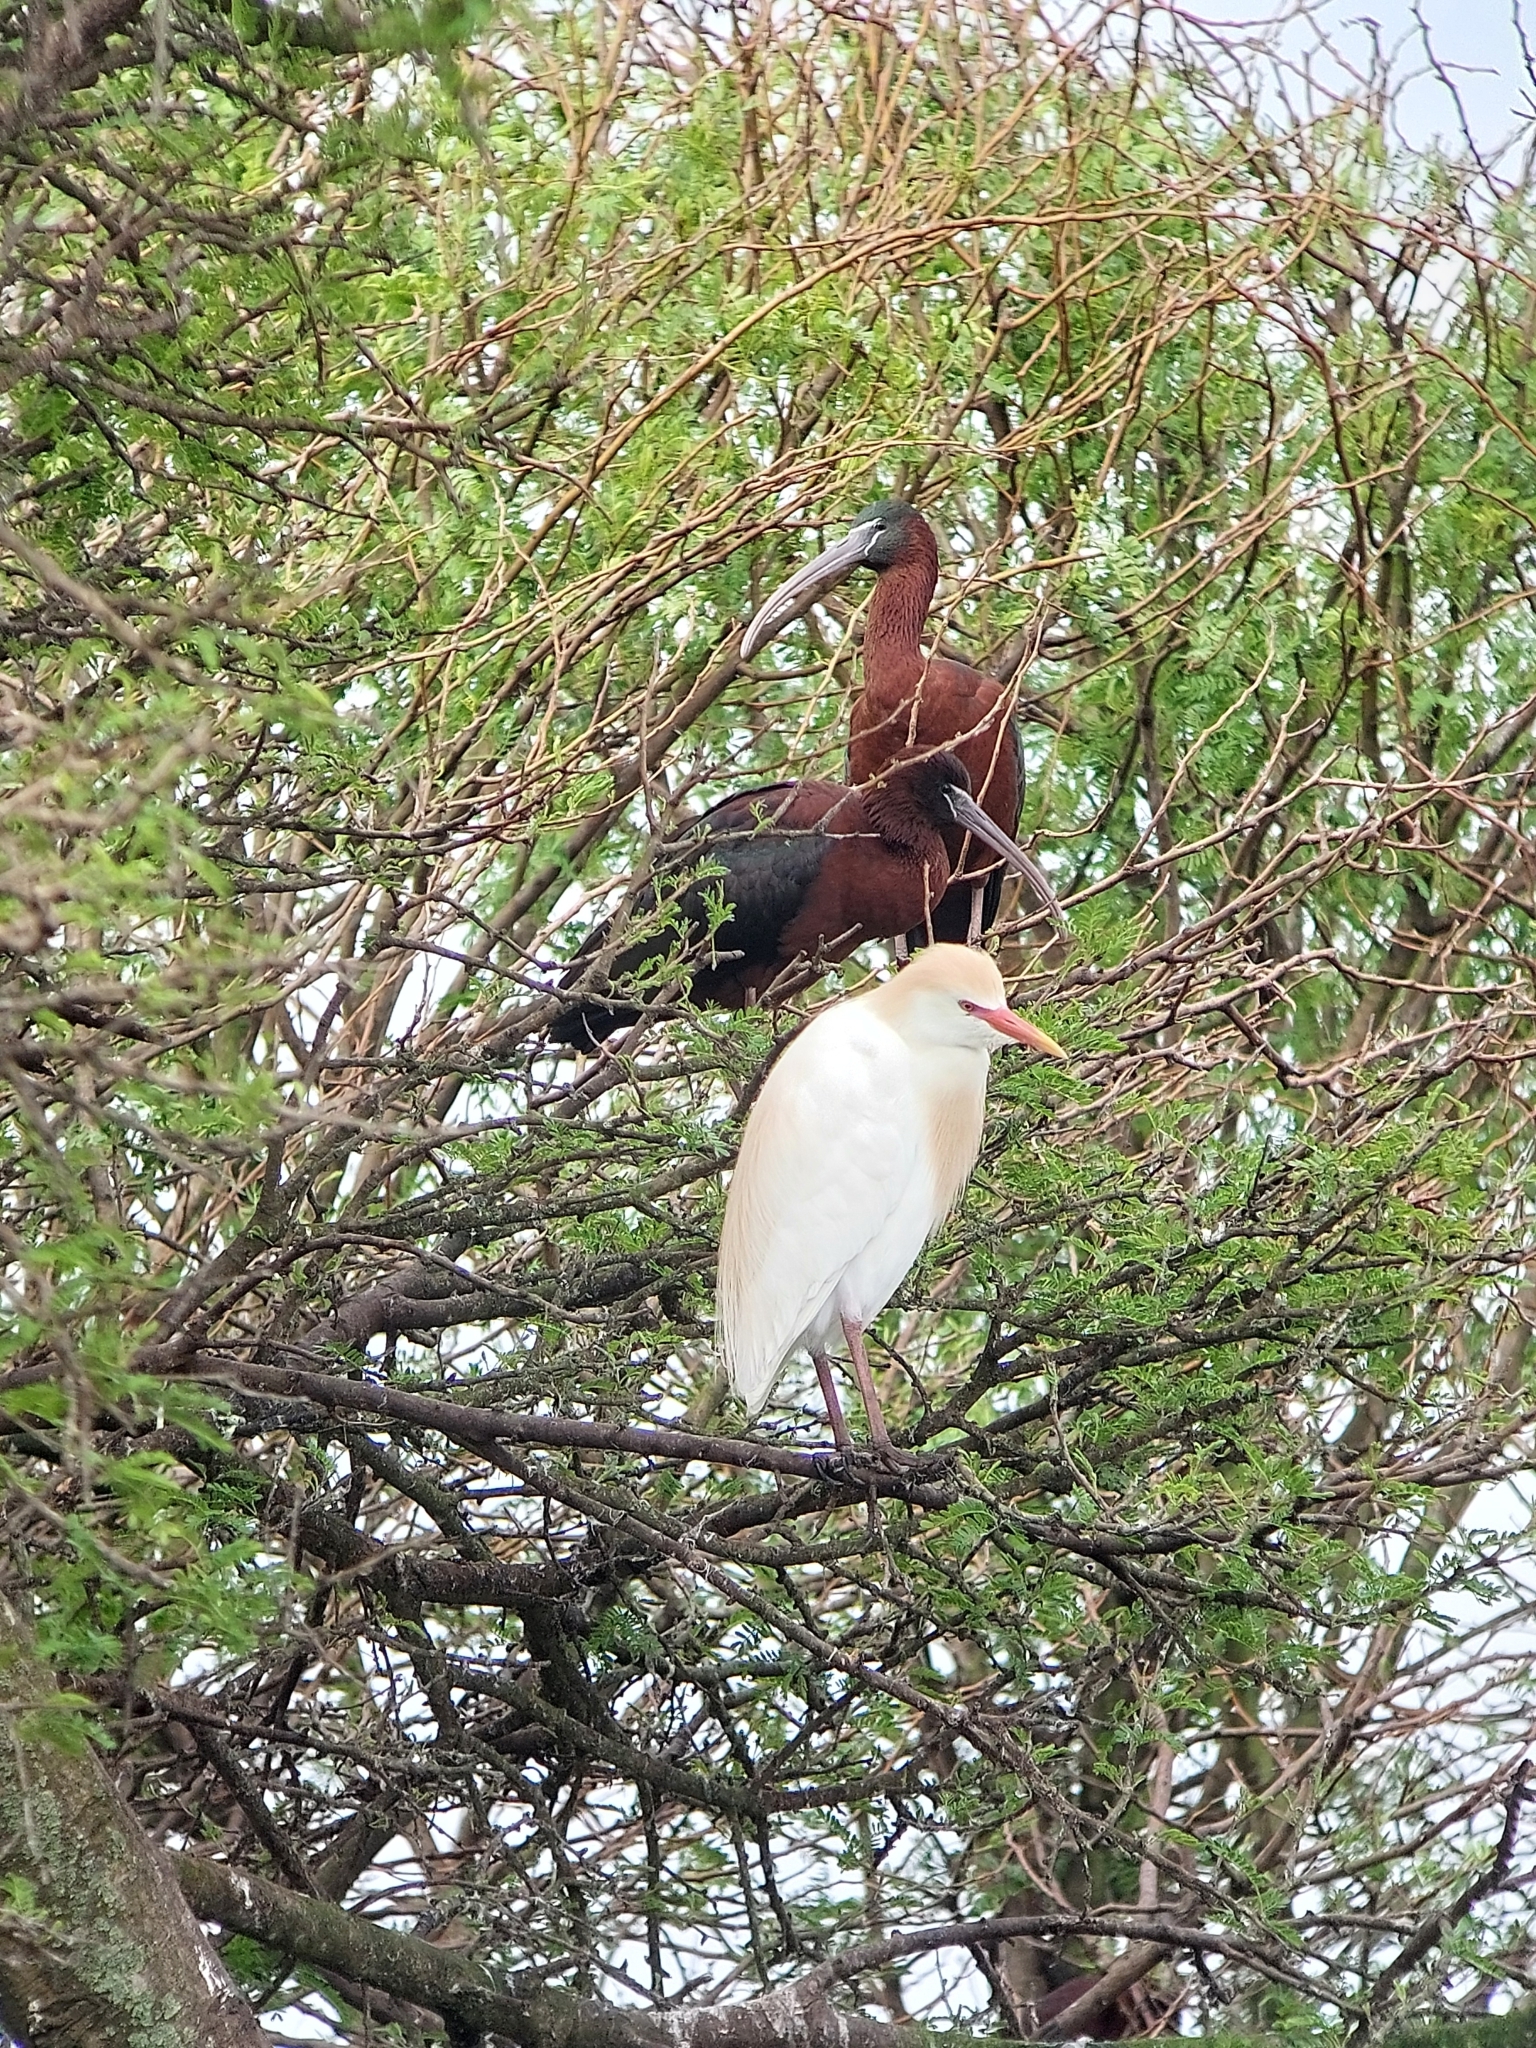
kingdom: Animalia
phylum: Chordata
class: Aves
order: Pelecaniformes
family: Threskiornithidae
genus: Plegadis
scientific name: Plegadis falcinellus
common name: Glossy ibis
